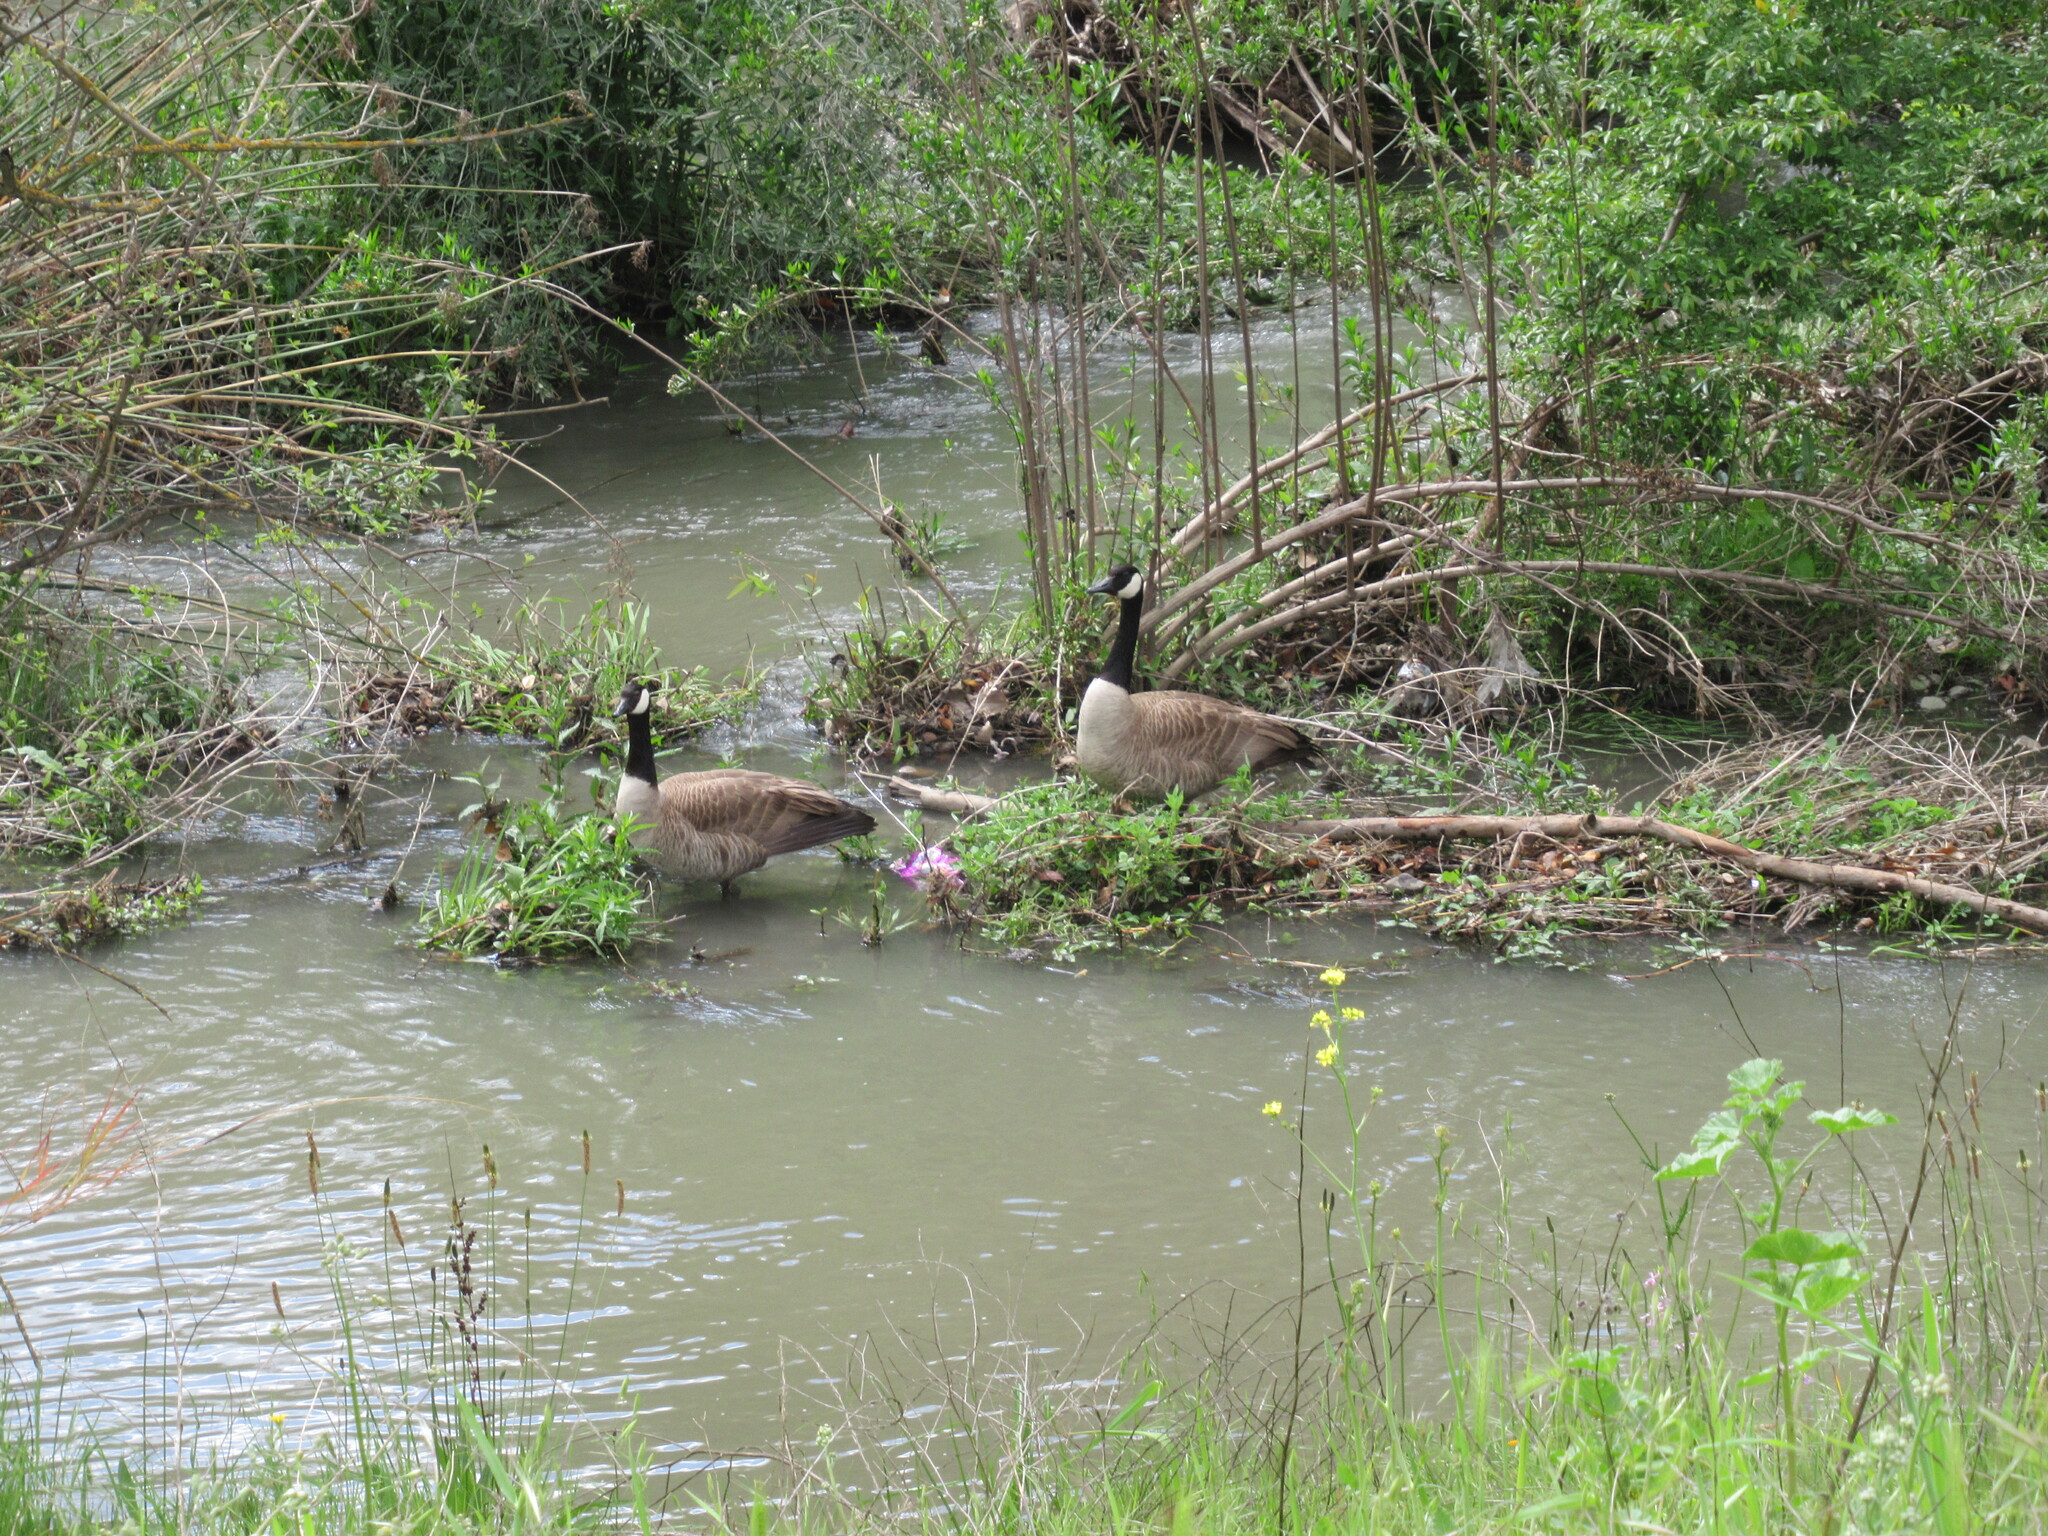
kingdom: Animalia
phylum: Chordata
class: Aves
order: Anseriformes
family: Anatidae
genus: Branta
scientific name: Branta canadensis
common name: Canada goose
